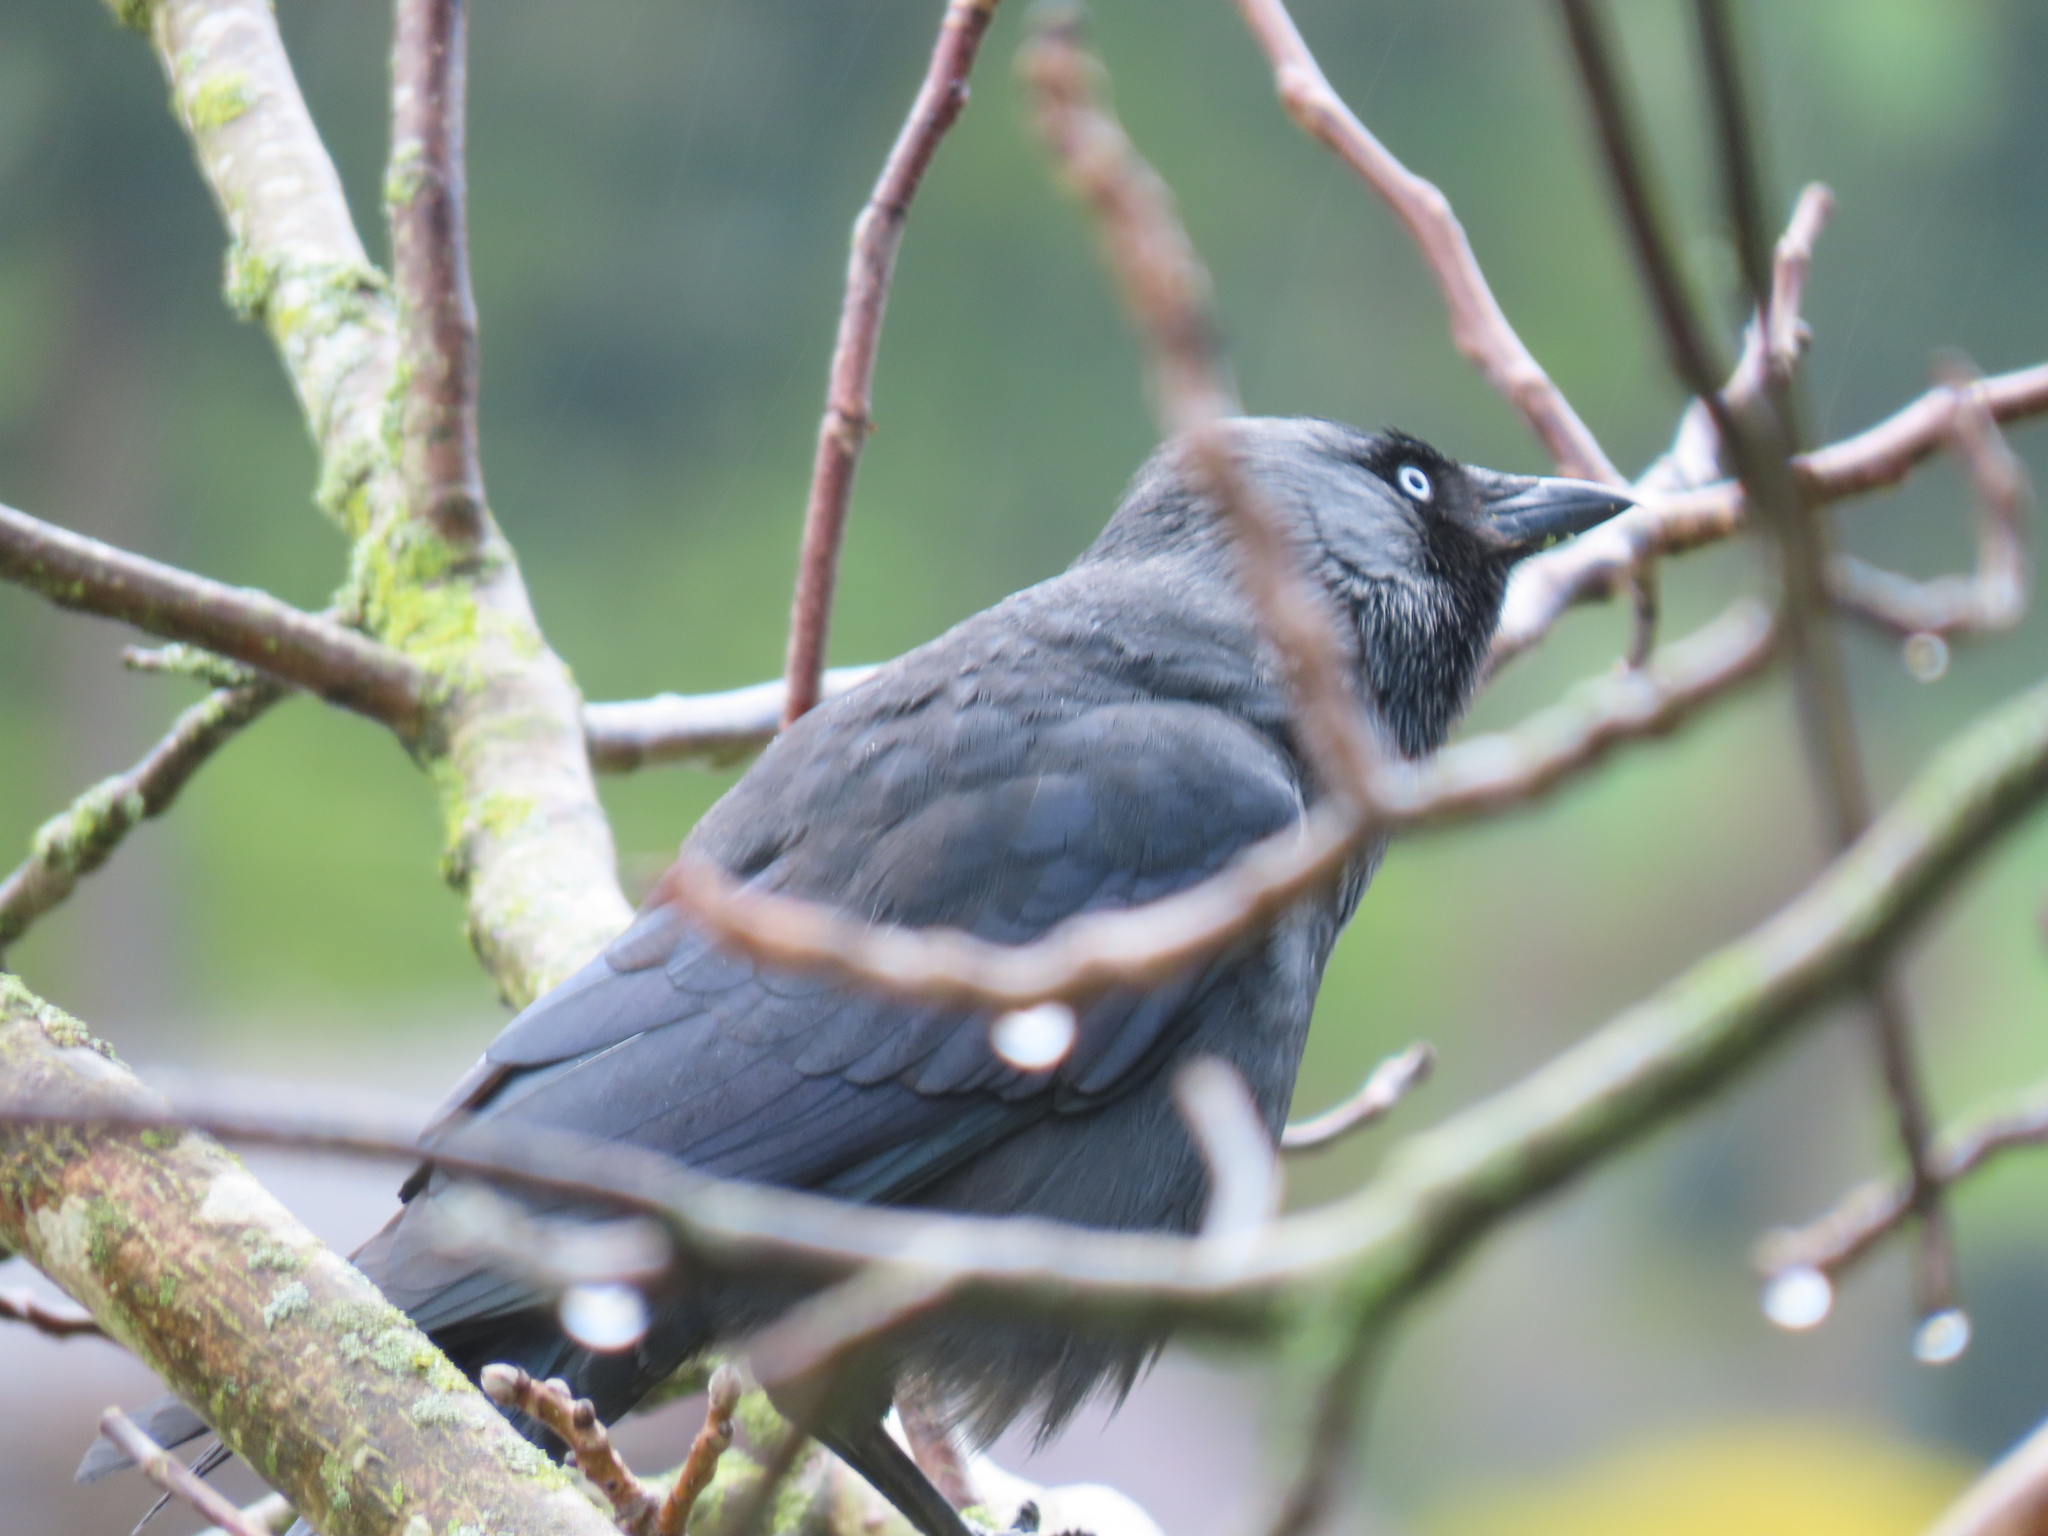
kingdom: Animalia
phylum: Chordata
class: Aves
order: Passeriformes
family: Corvidae
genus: Coloeus
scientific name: Coloeus monedula
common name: Western jackdaw
